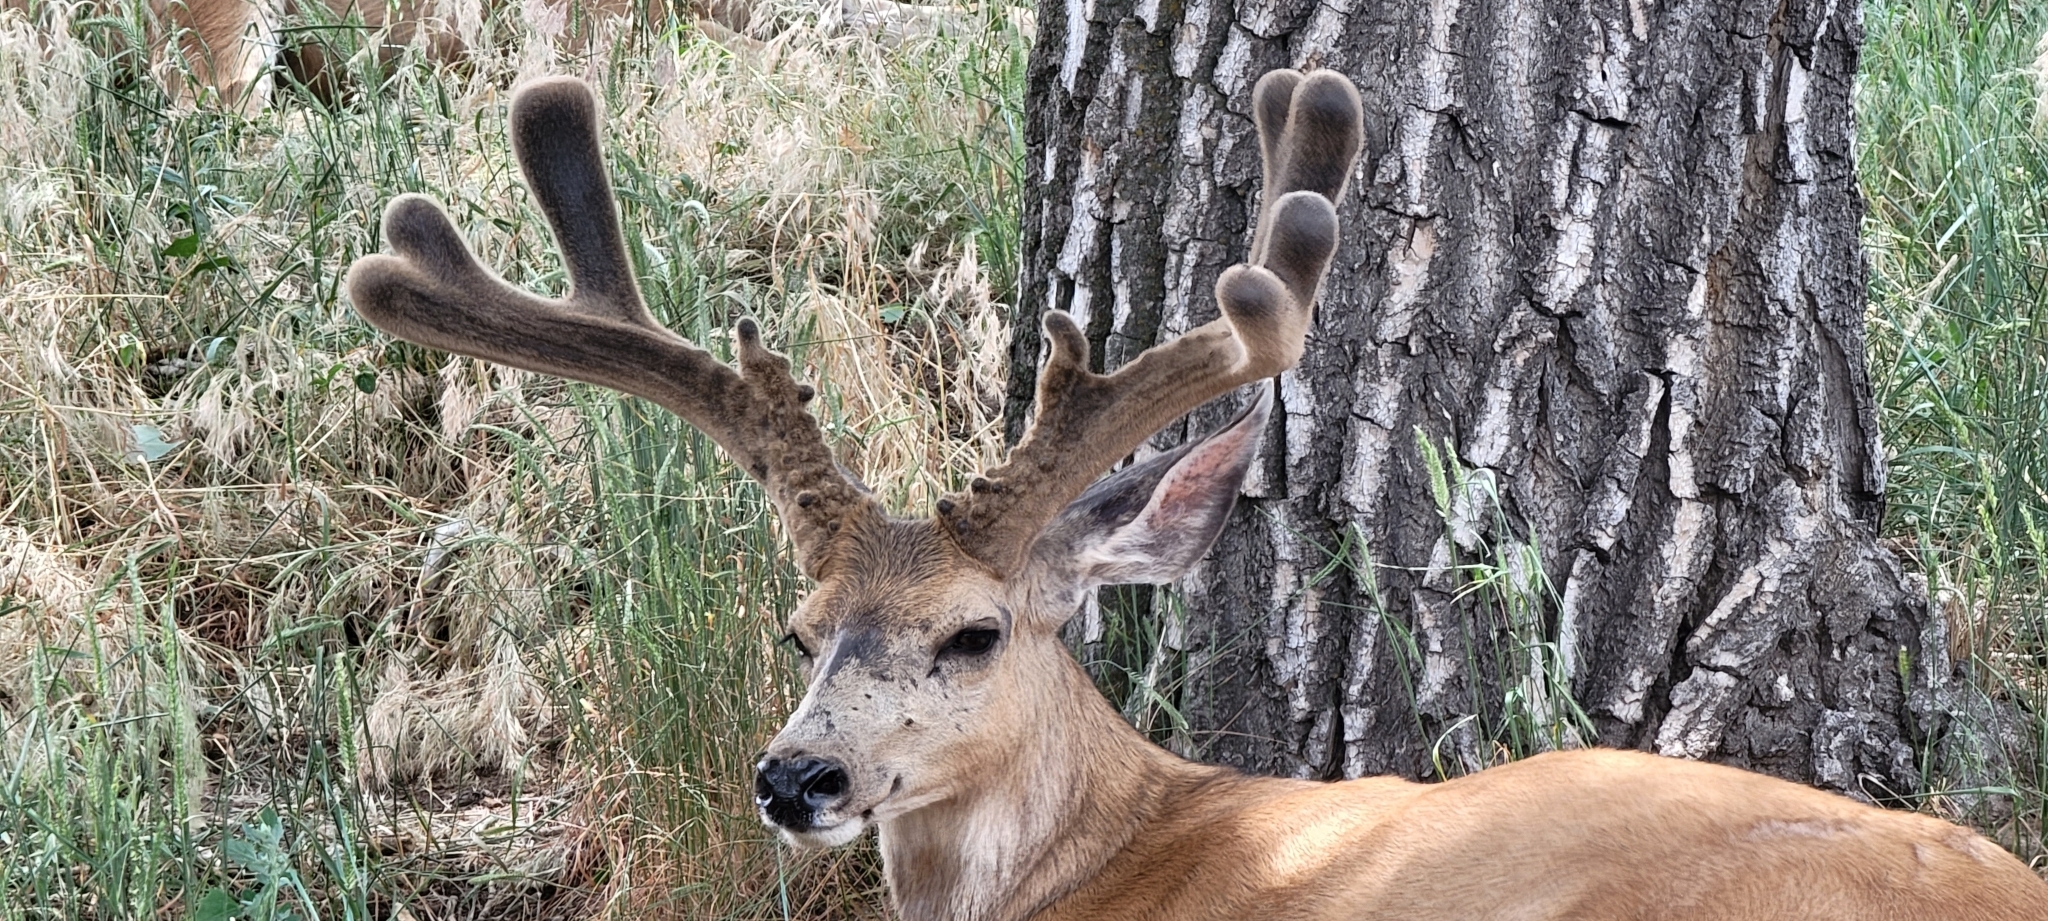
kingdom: Animalia
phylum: Chordata
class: Mammalia
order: Artiodactyla
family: Cervidae
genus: Odocoileus
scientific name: Odocoileus hemionus
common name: Mule deer
